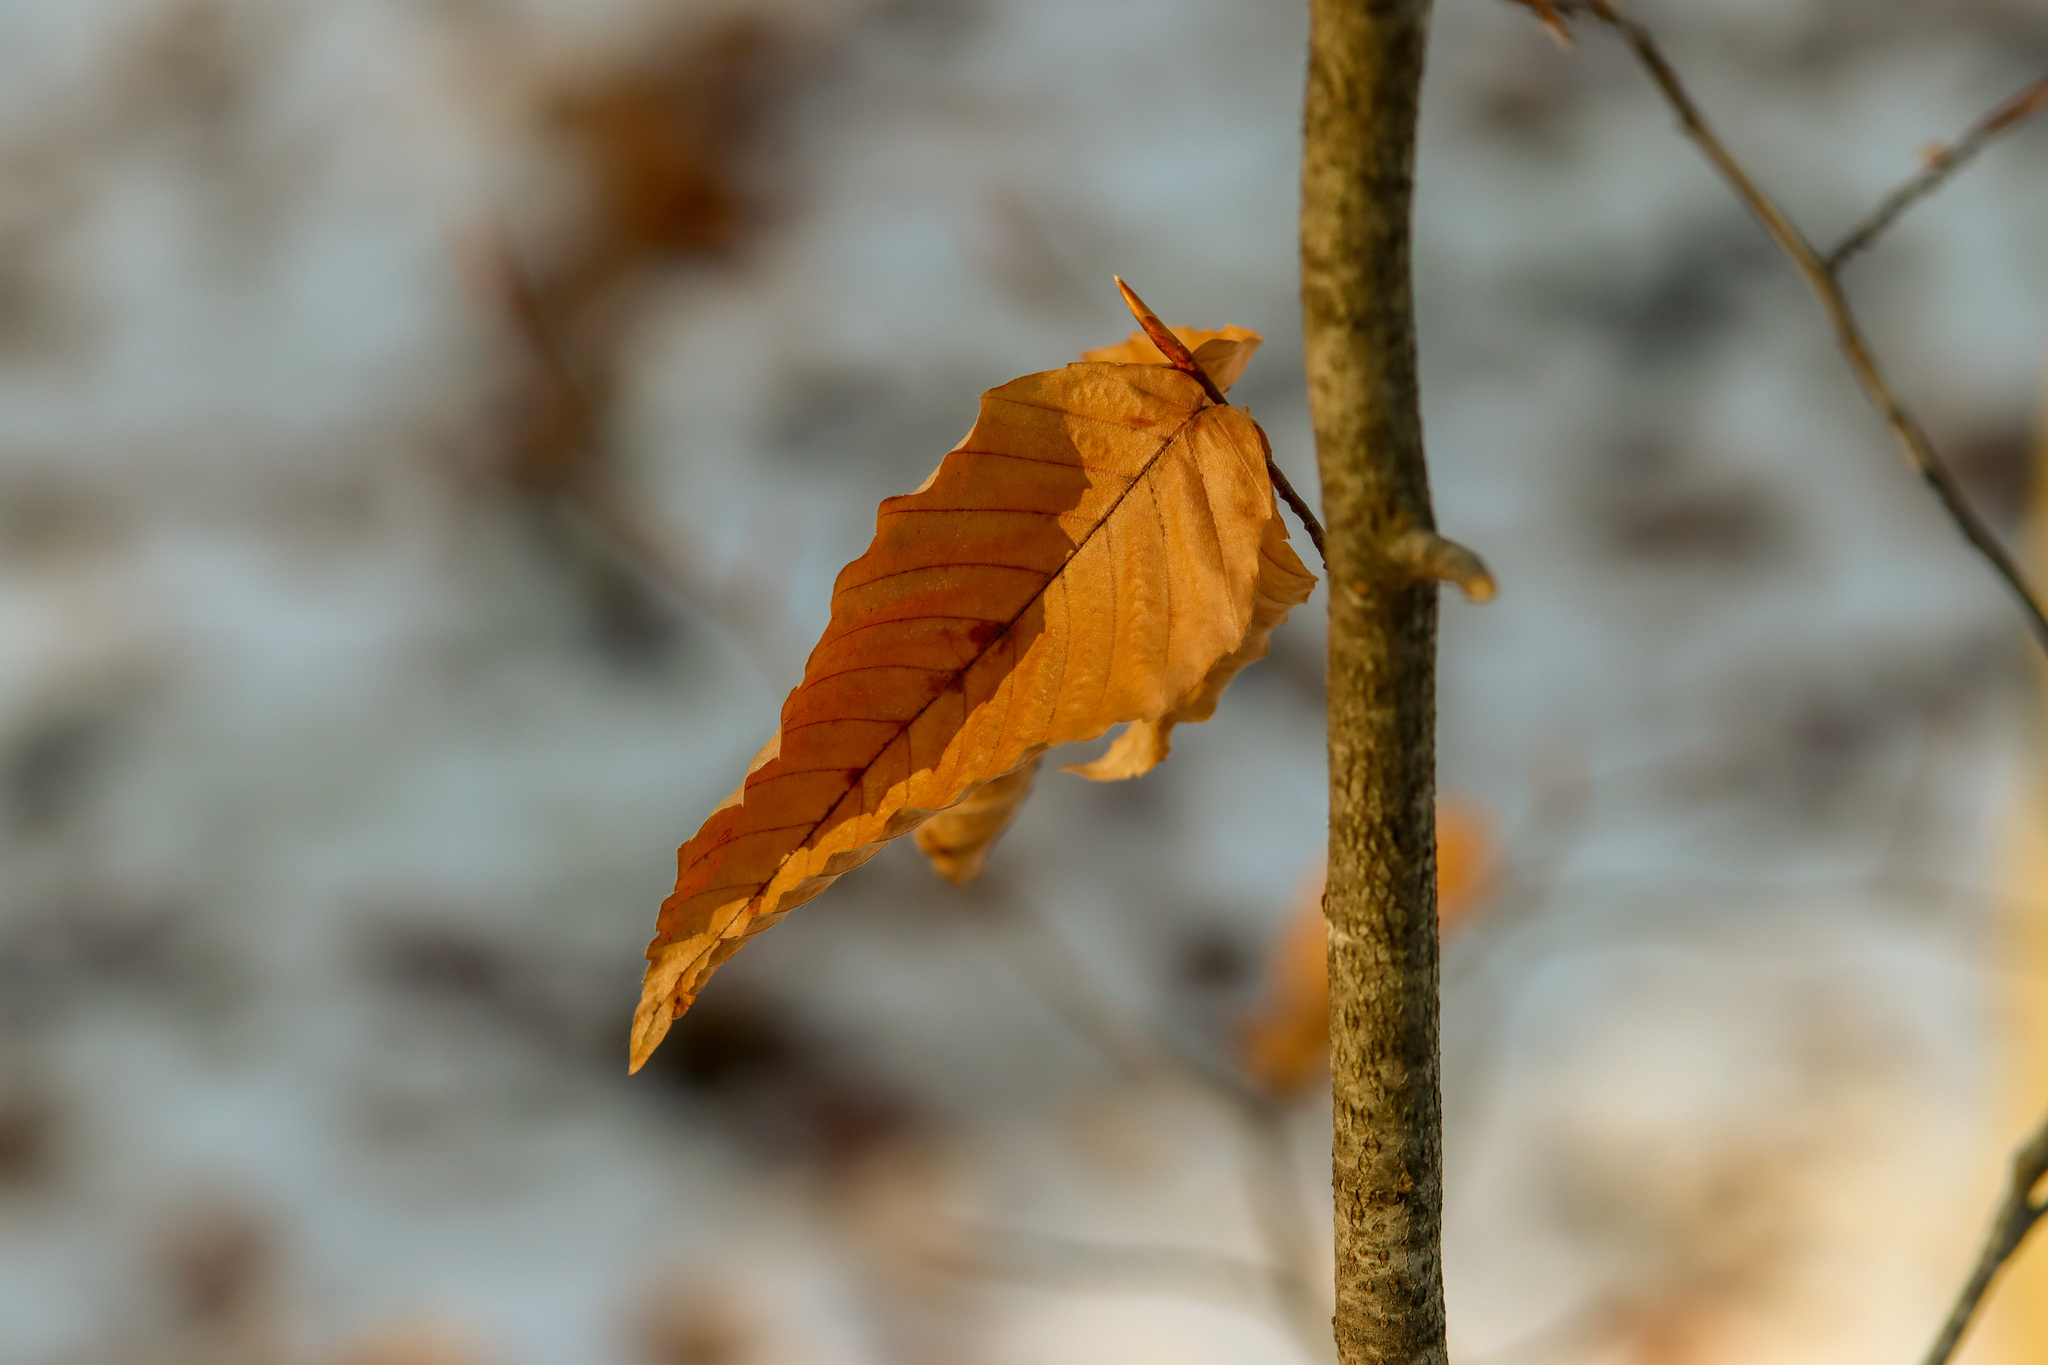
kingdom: Plantae
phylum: Tracheophyta
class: Magnoliopsida
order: Fagales
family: Fagaceae
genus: Fagus
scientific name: Fagus grandifolia
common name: American beech
